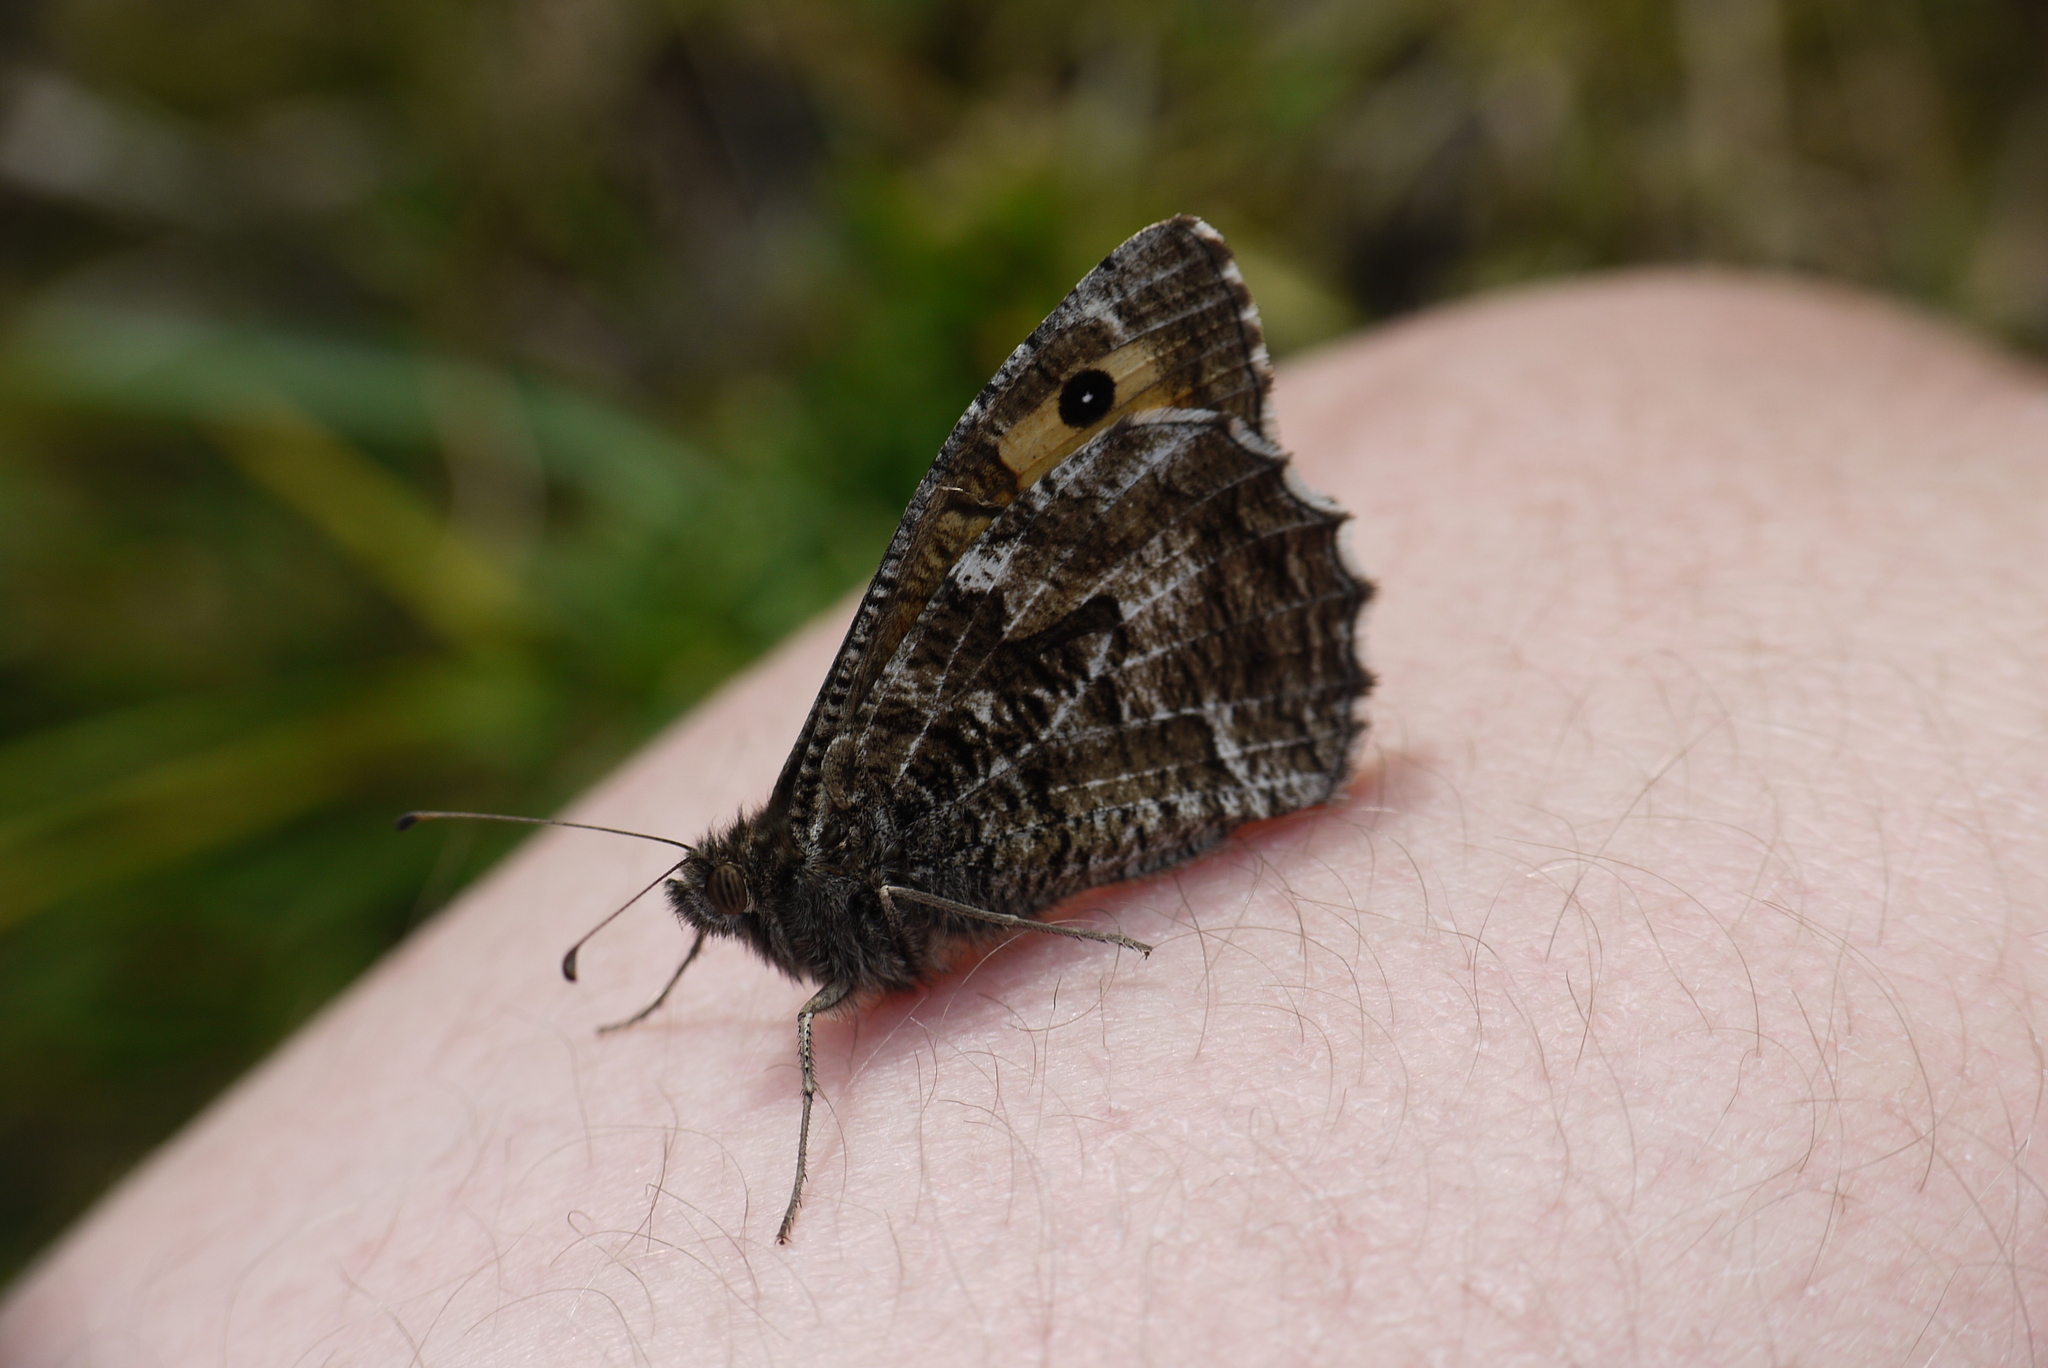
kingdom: Animalia
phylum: Arthropoda
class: Insecta
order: Lepidoptera
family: Nymphalidae
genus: Hipparchia
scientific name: Hipparchia semele
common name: Grayling
